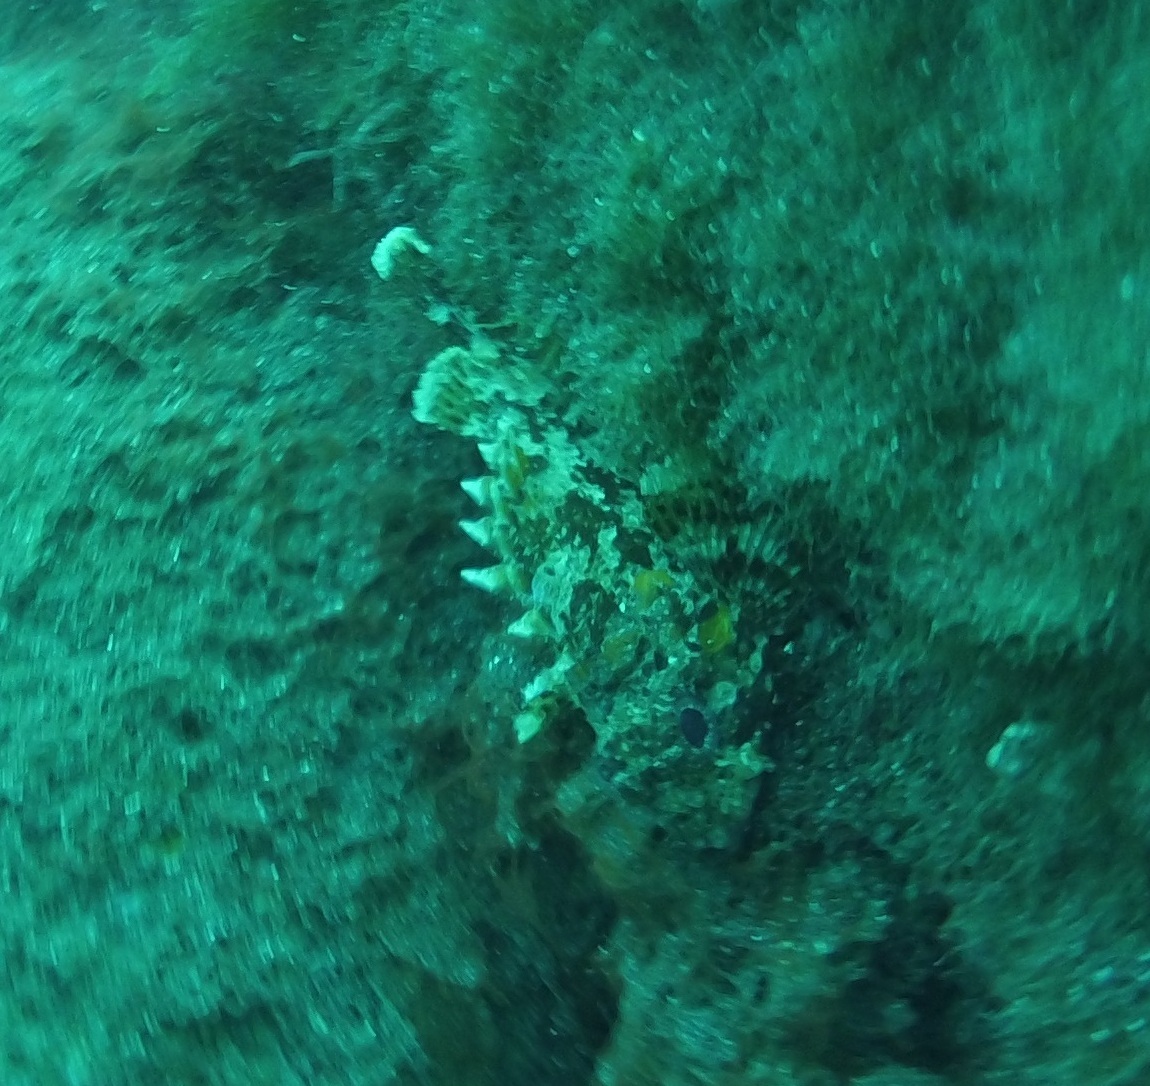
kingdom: Animalia
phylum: Chordata
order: Scorpaeniformes
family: Scorpaenidae
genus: Scorpaena
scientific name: Scorpaena notata
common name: Small red scorpionfish
